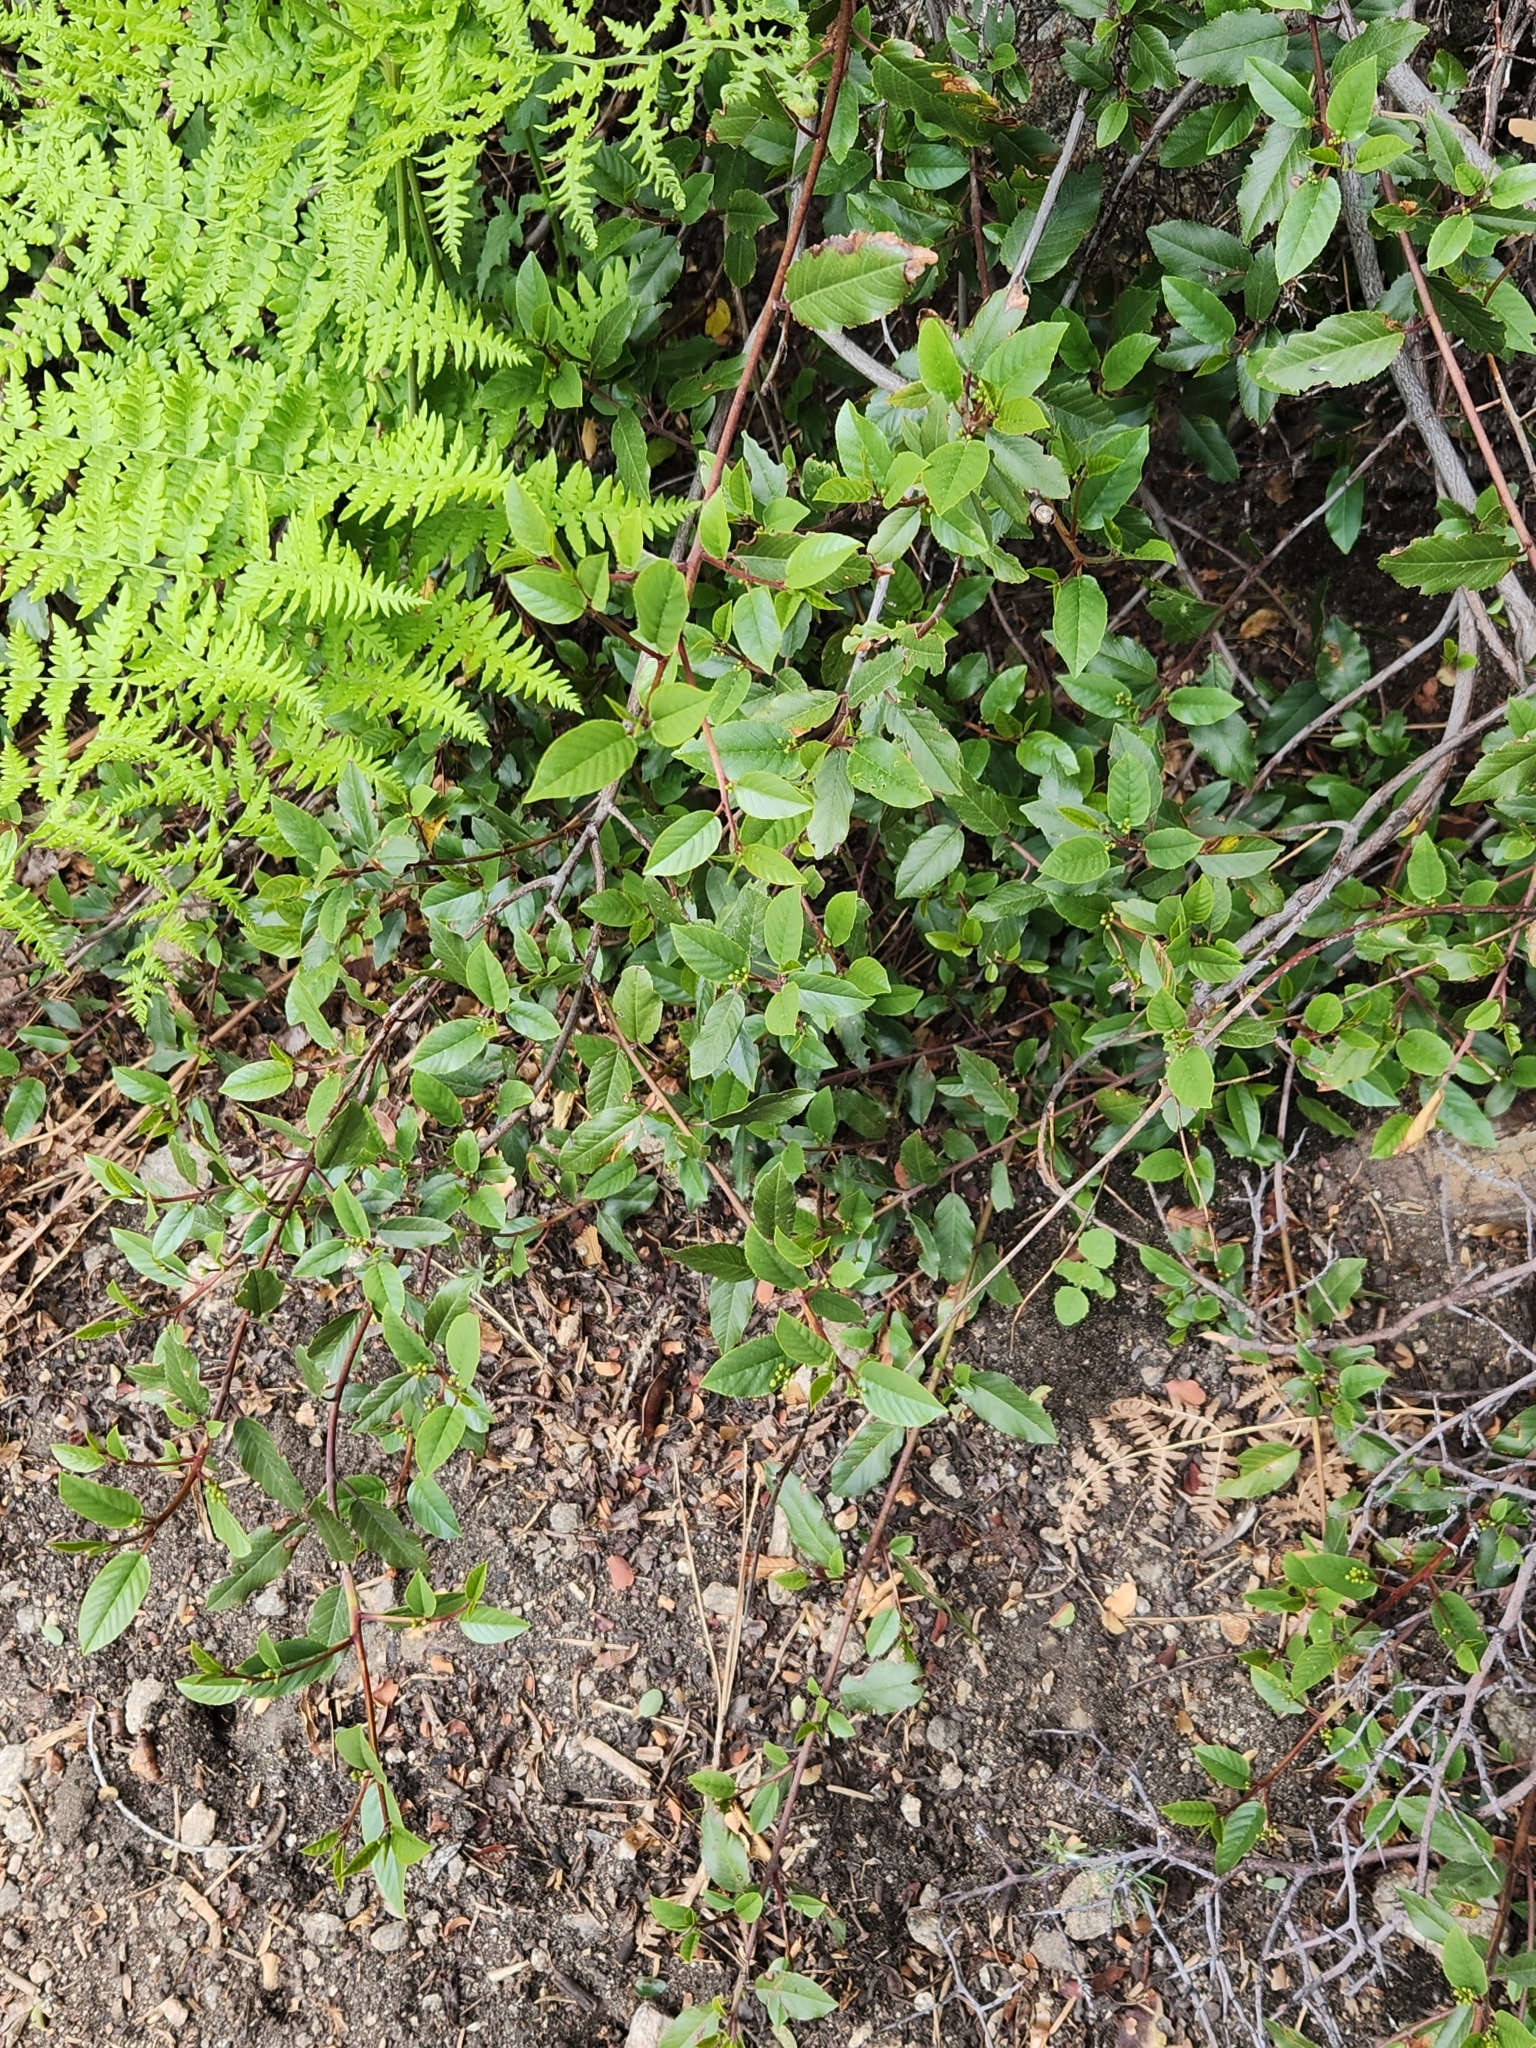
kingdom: Plantae
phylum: Tracheophyta
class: Magnoliopsida
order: Rosales
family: Rhamnaceae
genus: Frangula
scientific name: Frangula californica
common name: California buckthorn
